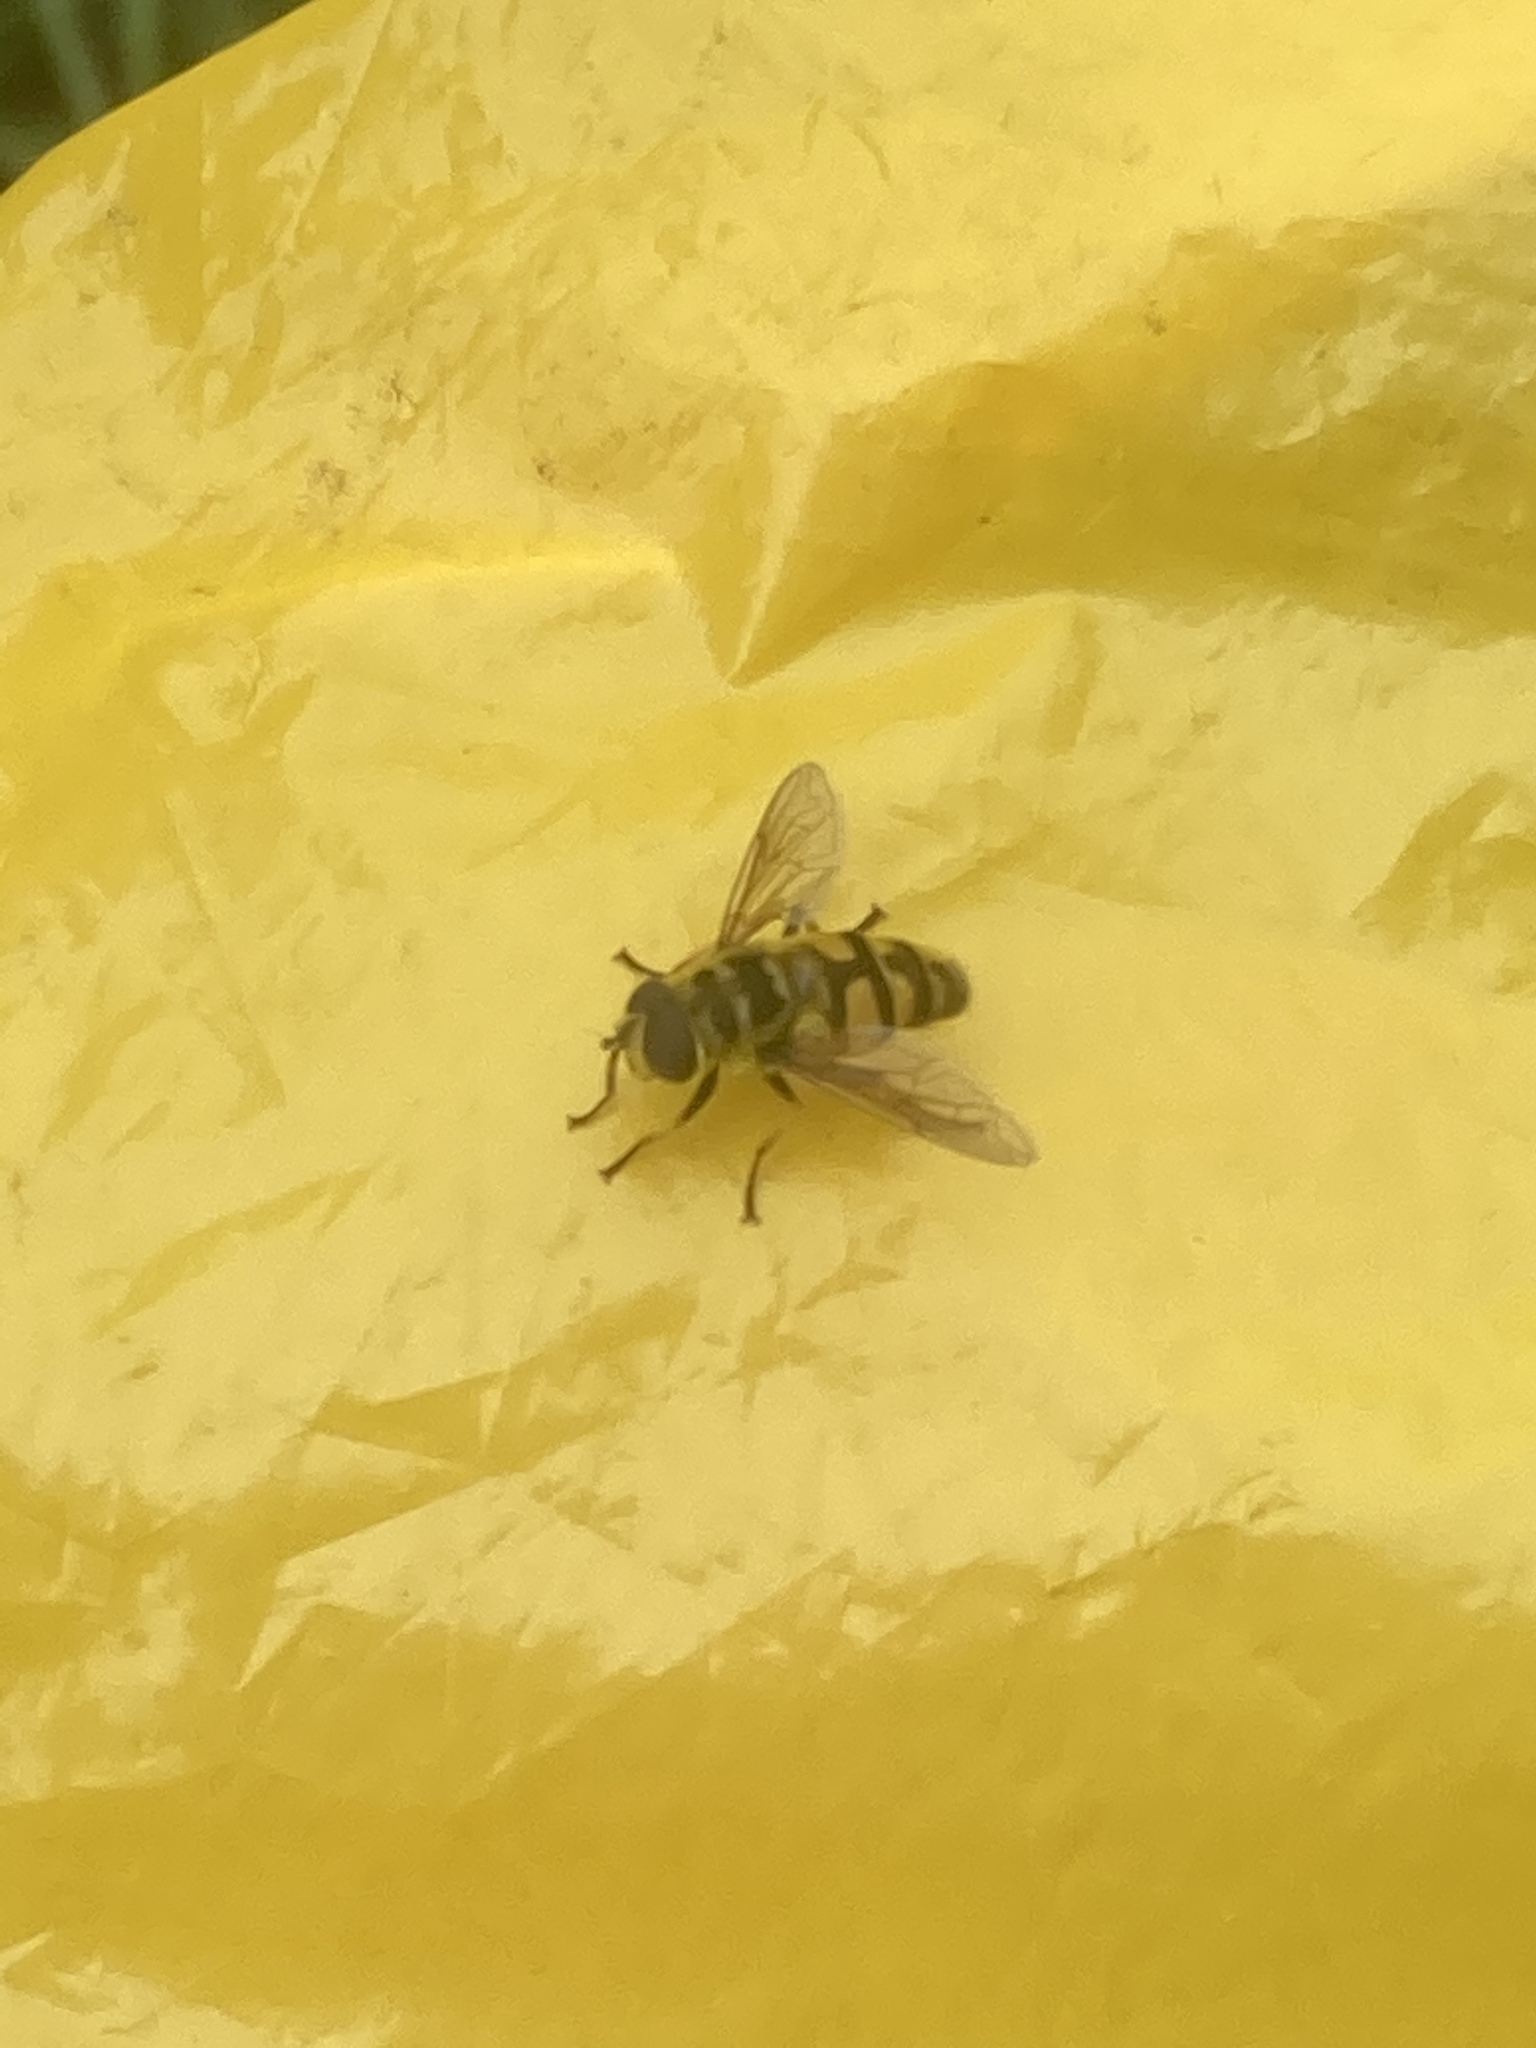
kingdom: Animalia
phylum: Arthropoda
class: Insecta
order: Diptera
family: Syrphidae
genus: Myathropa
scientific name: Myathropa florea
